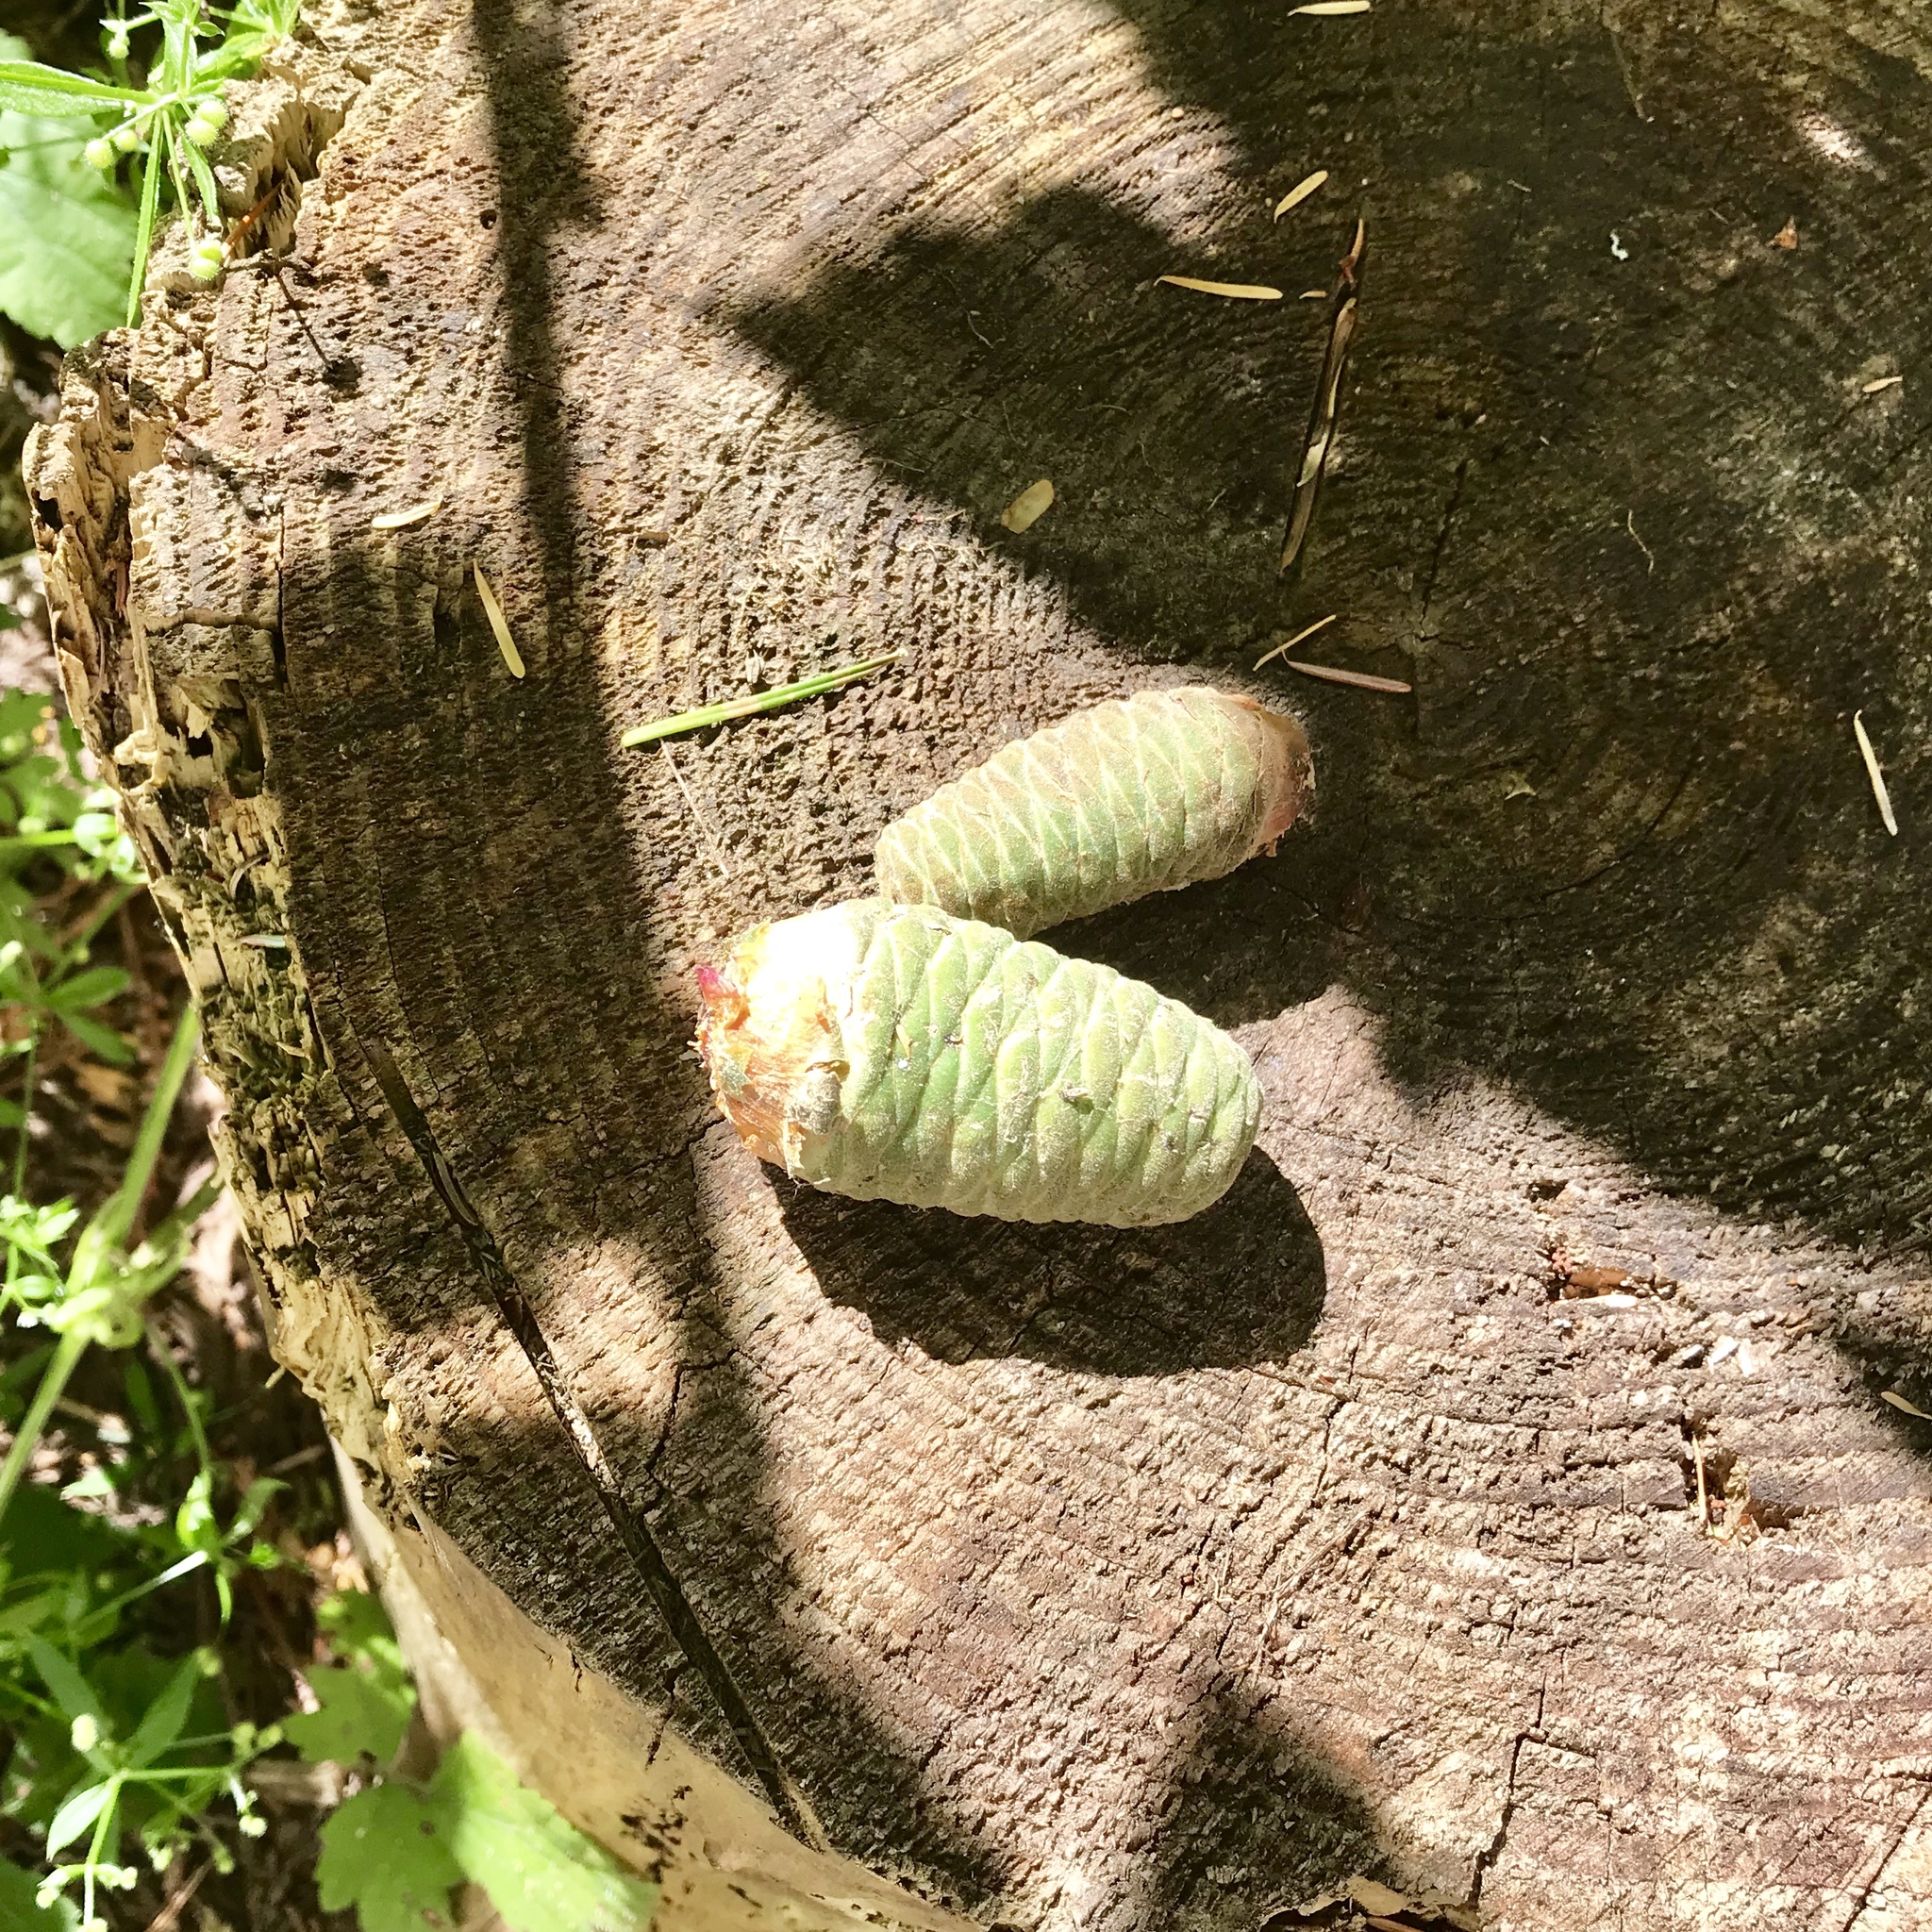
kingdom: Plantae
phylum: Tracheophyta
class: Pinopsida
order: Pinales
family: Pinaceae
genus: Abies
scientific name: Abies grandis
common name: Giant fir
